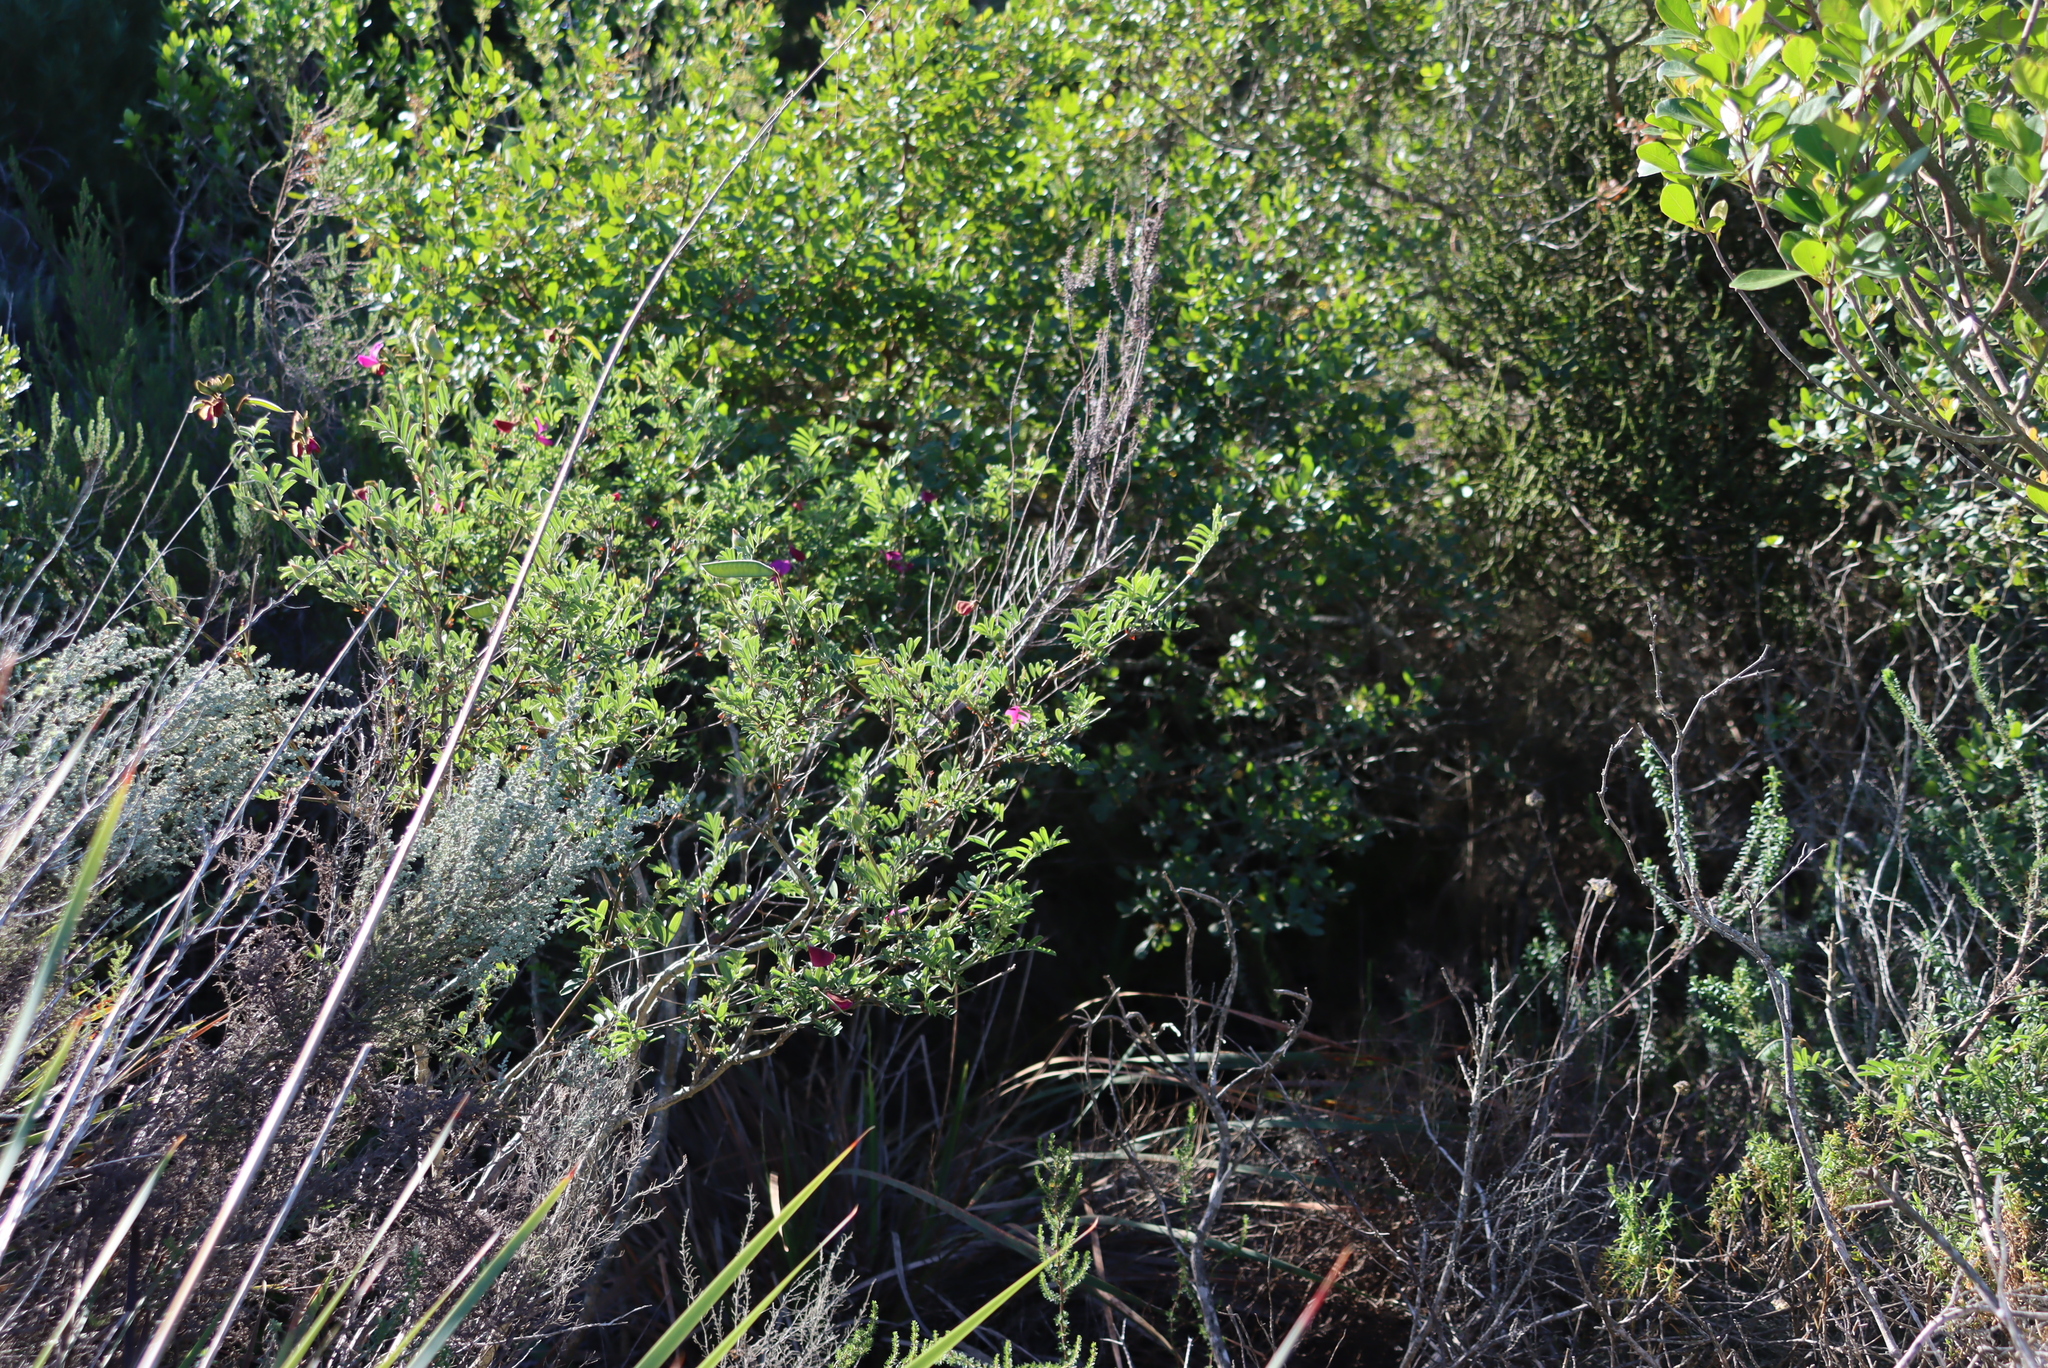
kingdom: Plantae
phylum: Tracheophyta
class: Magnoliopsida
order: Fabales
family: Fabaceae
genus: Tephrosia
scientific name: Tephrosia grandiflora
